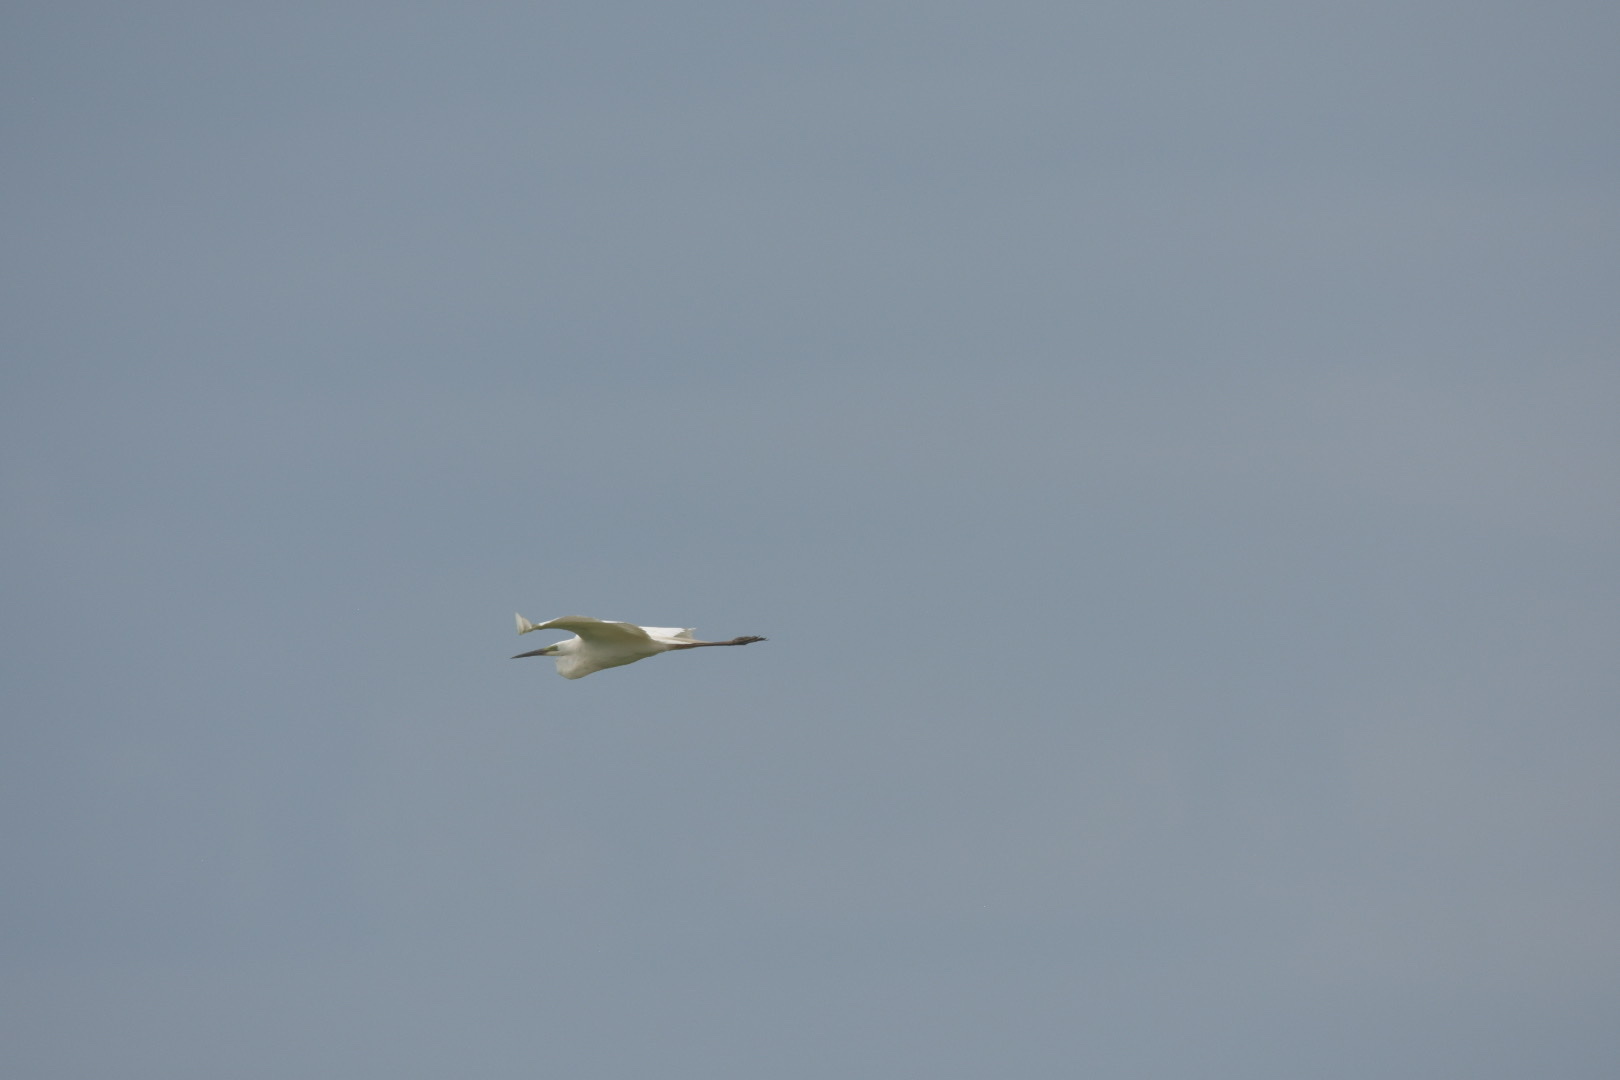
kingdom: Animalia
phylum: Chordata
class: Aves
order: Pelecaniformes
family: Ardeidae
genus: Ardea
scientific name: Ardea alba
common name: Great egret
